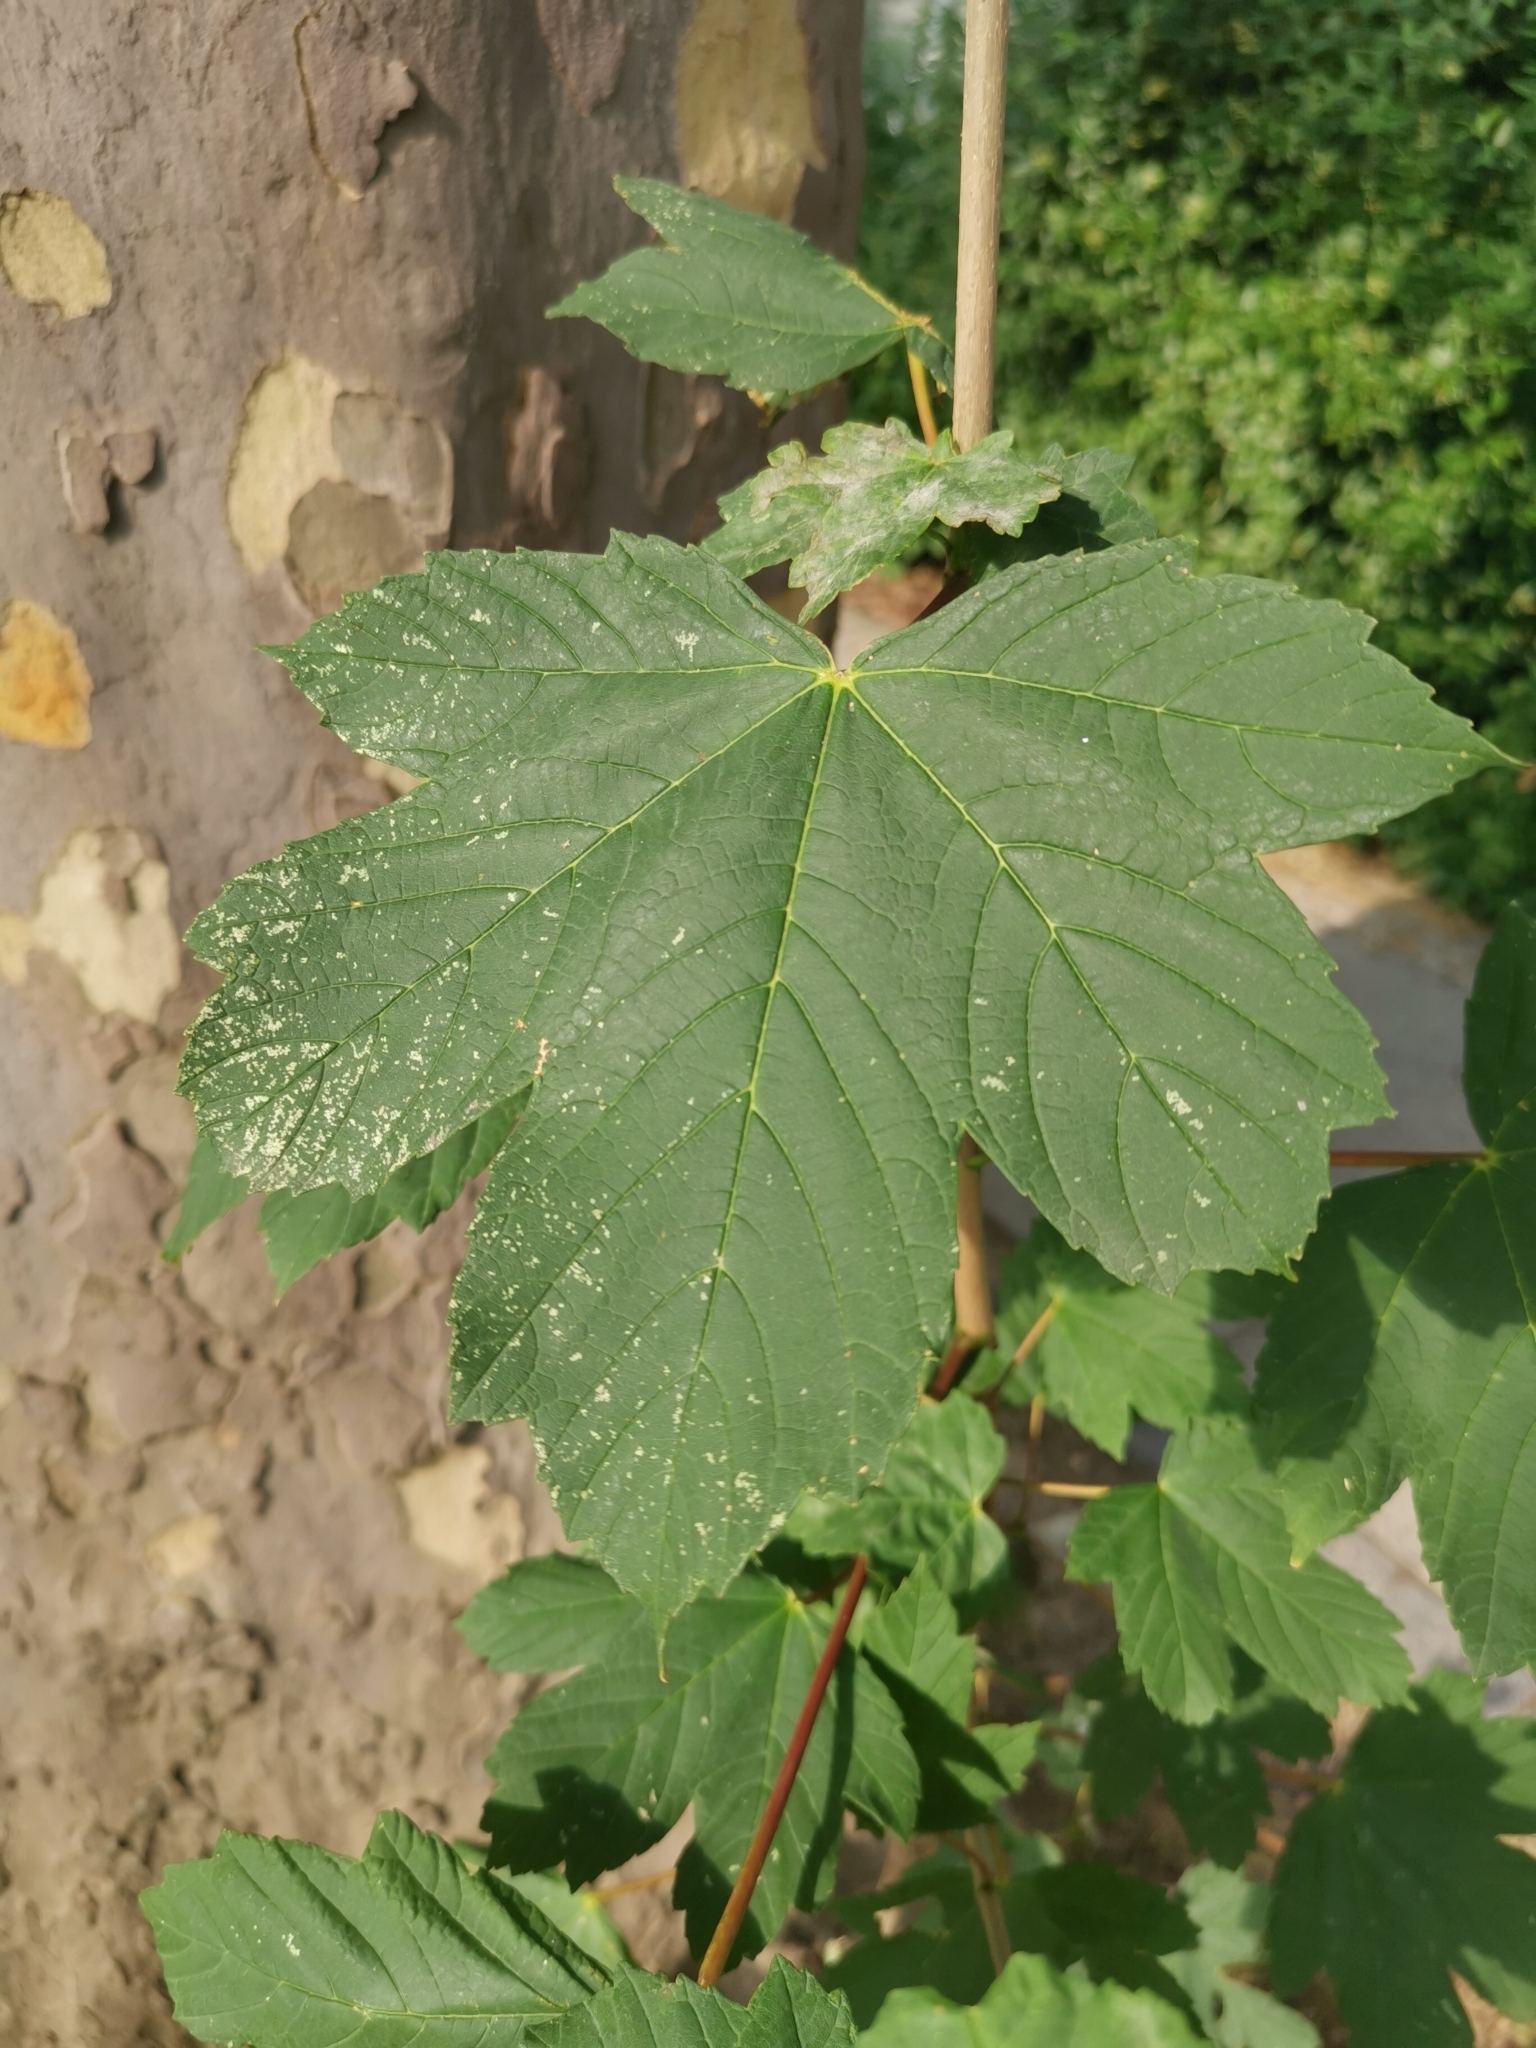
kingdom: Plantae
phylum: Tracheophyta
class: Magnoliopsida
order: Sapindales
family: Sapindaceae
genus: Acer
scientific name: Acer pseudoplatanus
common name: Sycamore
